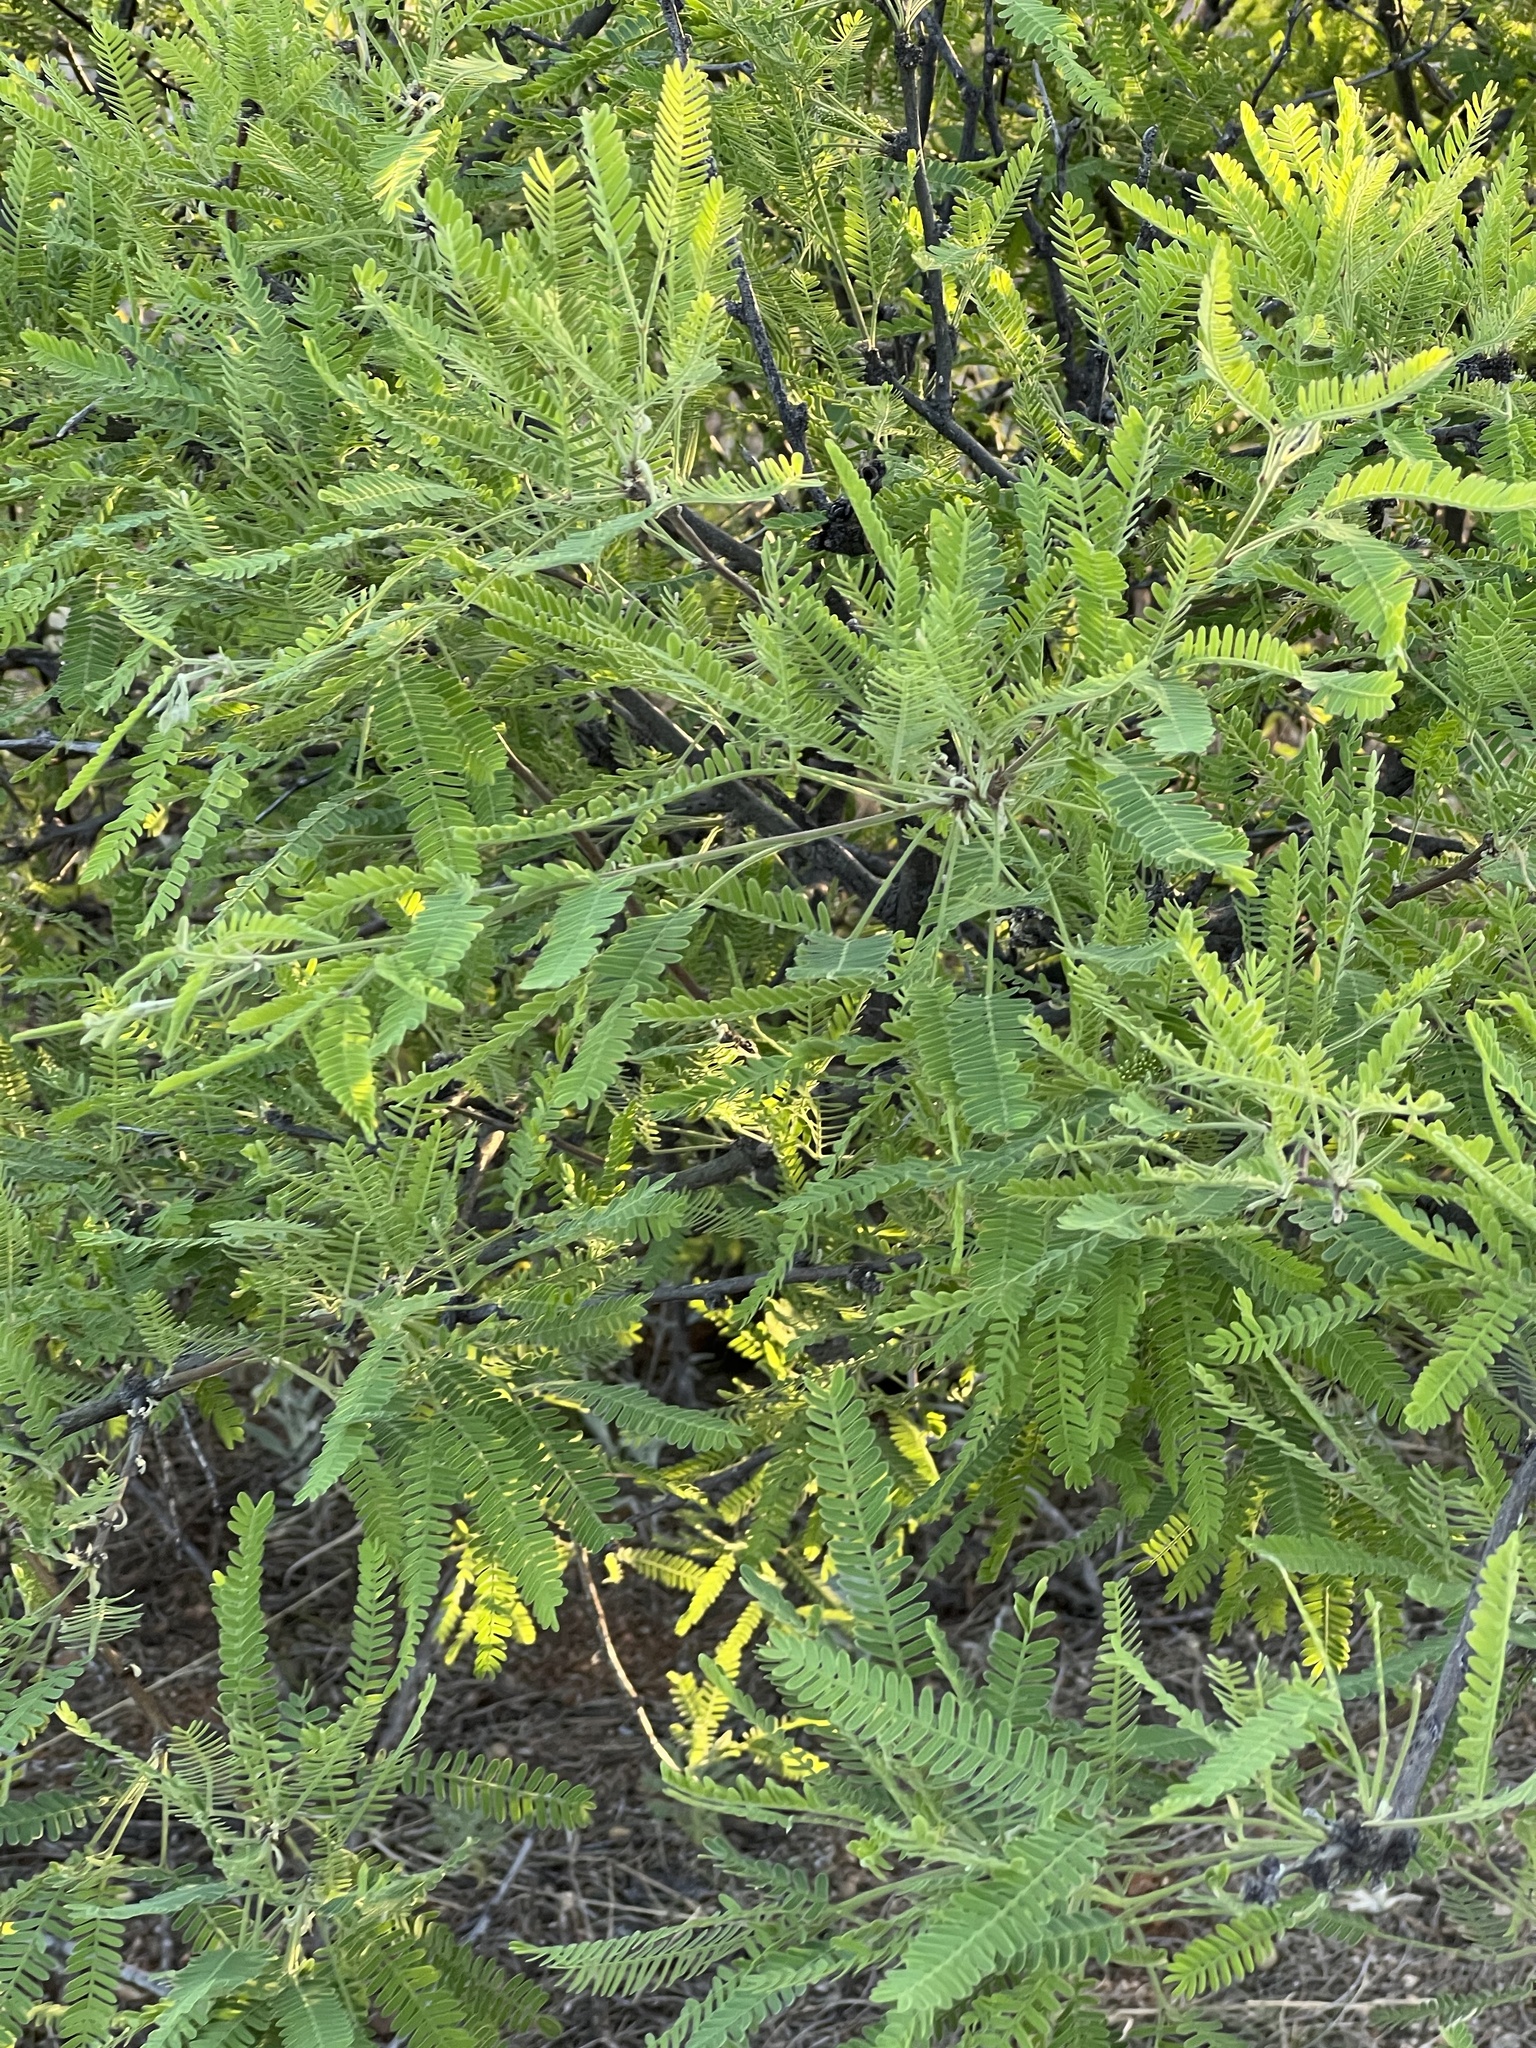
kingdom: Plantae
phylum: Tracheophyta
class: Magnoliopsida
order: Fabales
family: Fabaceae
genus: Prosopis
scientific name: Prosopis velutina
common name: Velvet mesquite
